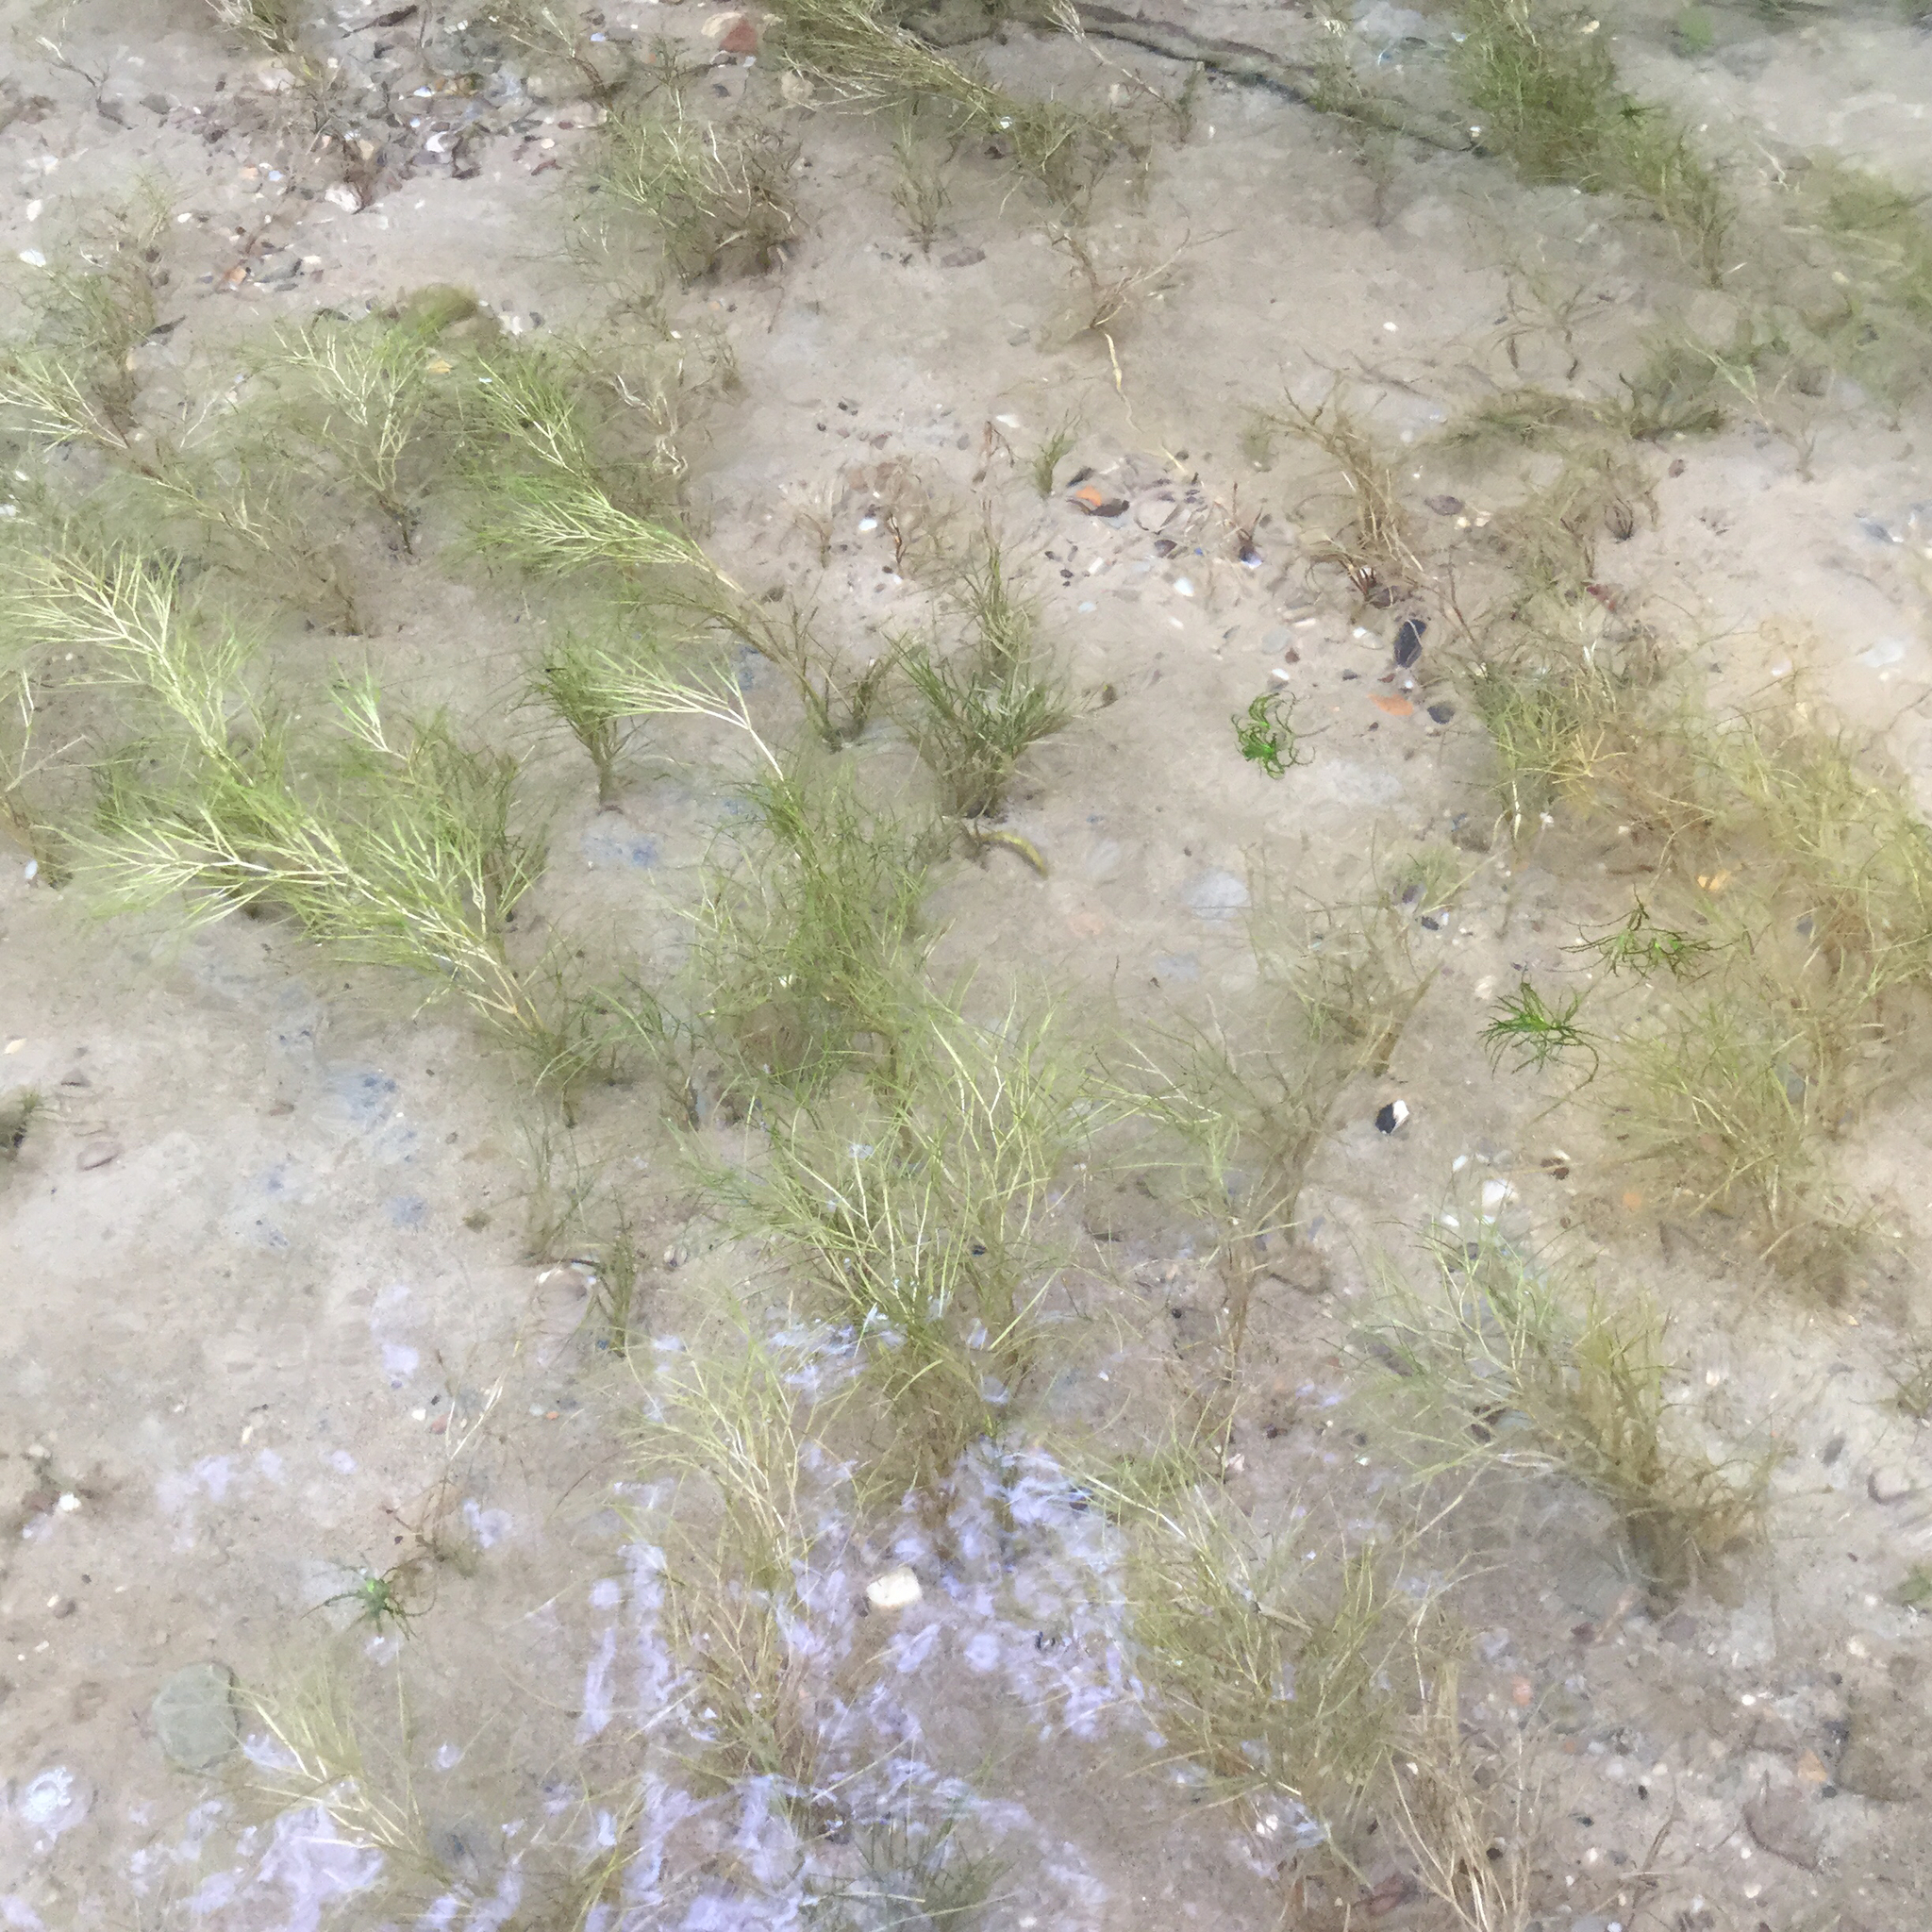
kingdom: Plantae
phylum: Tracheophyta
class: Liliopsida
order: Alismatales
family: Potamogetonaceae
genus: Stuckenia
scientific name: Stuckenia pectinata
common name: Sago pondweed
